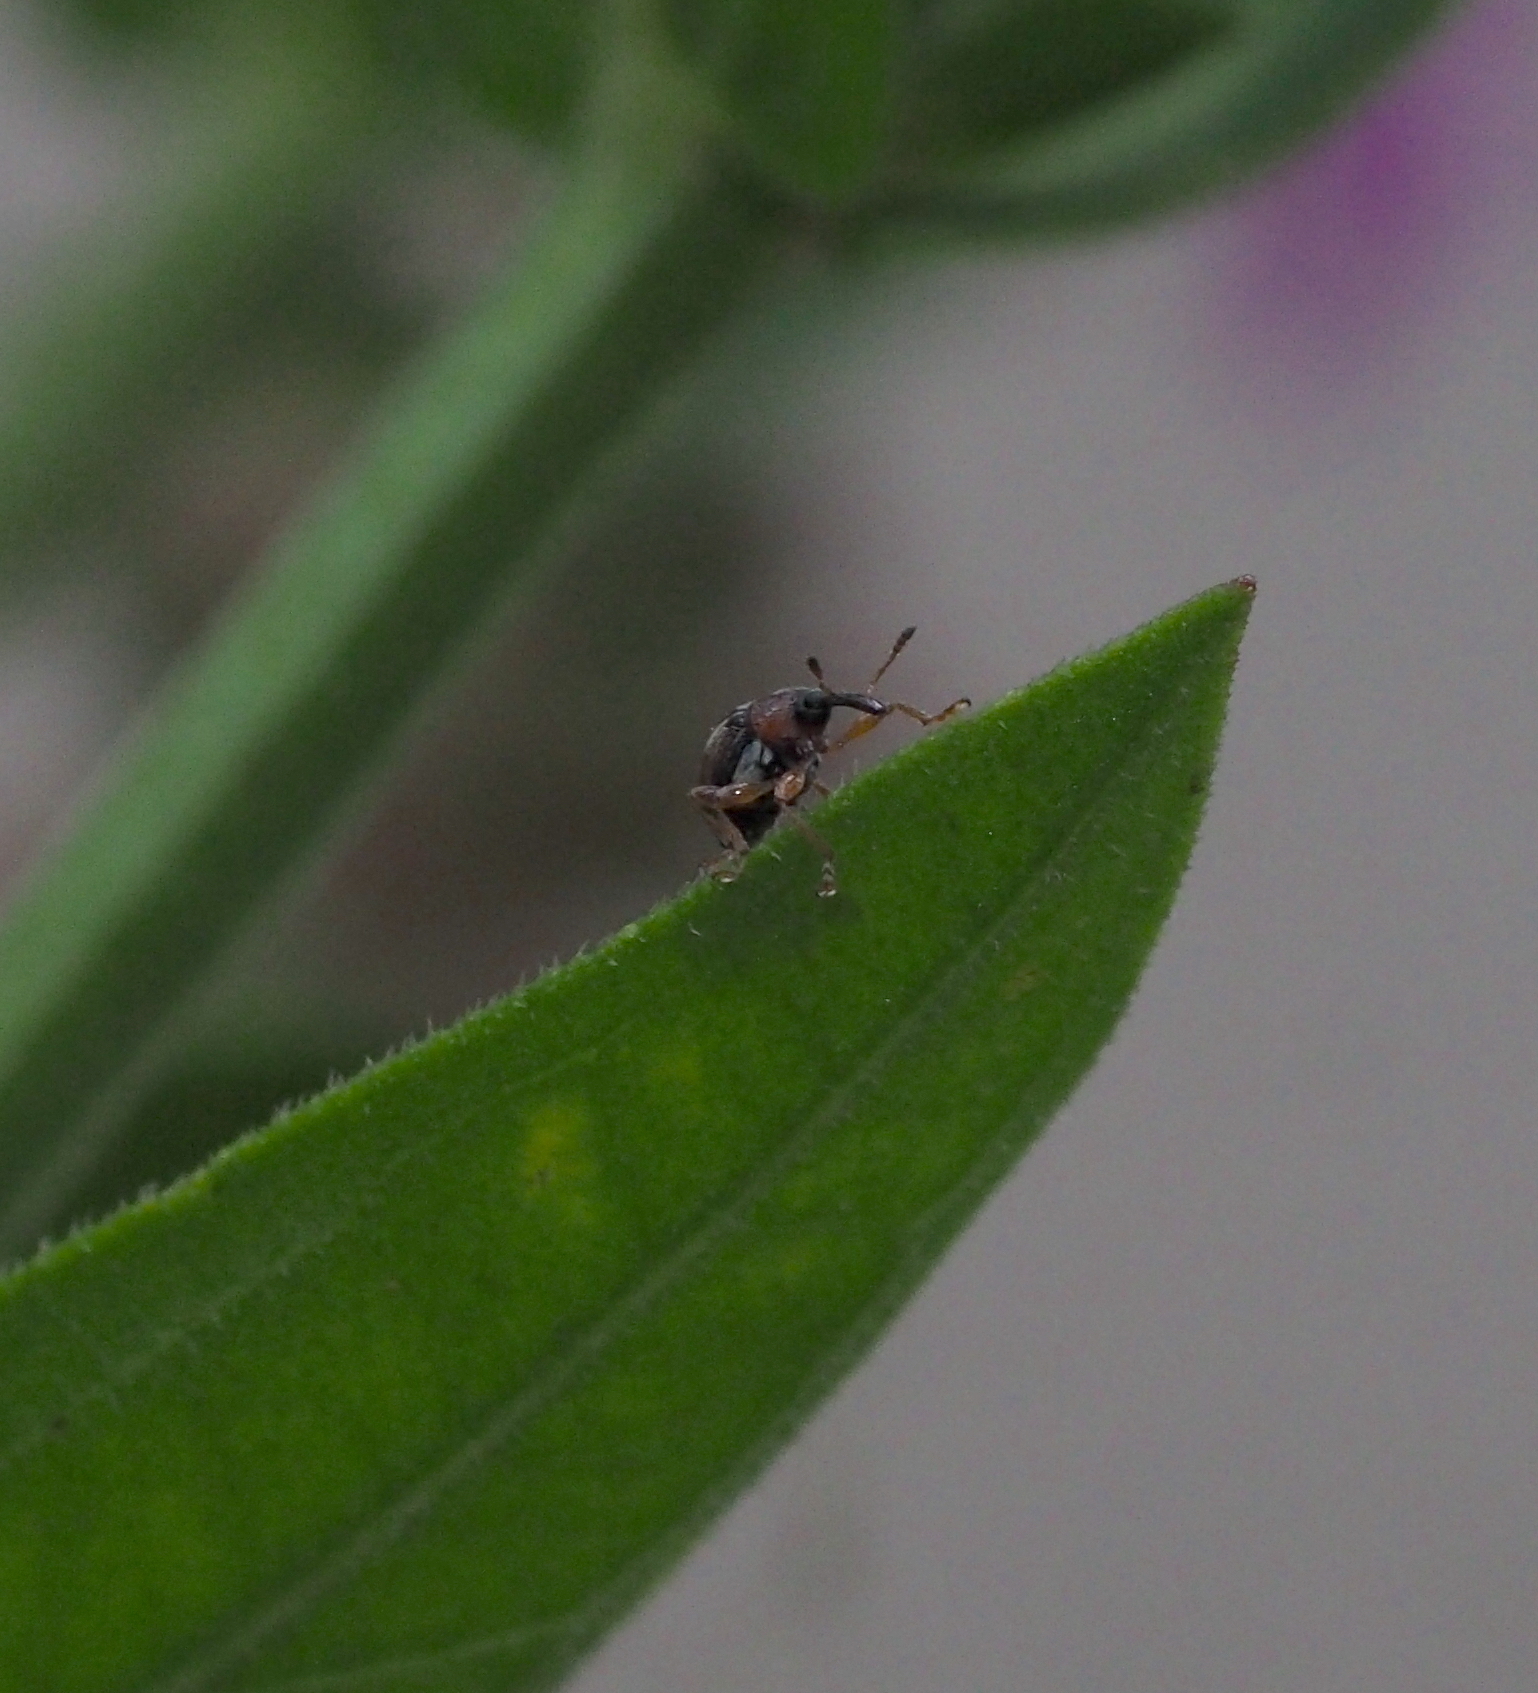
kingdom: Animalia
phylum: Arthropoda
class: Insecta
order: Coleoptera
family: Brentidae
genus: Nanophyes
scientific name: Nanophyes marmoratus
